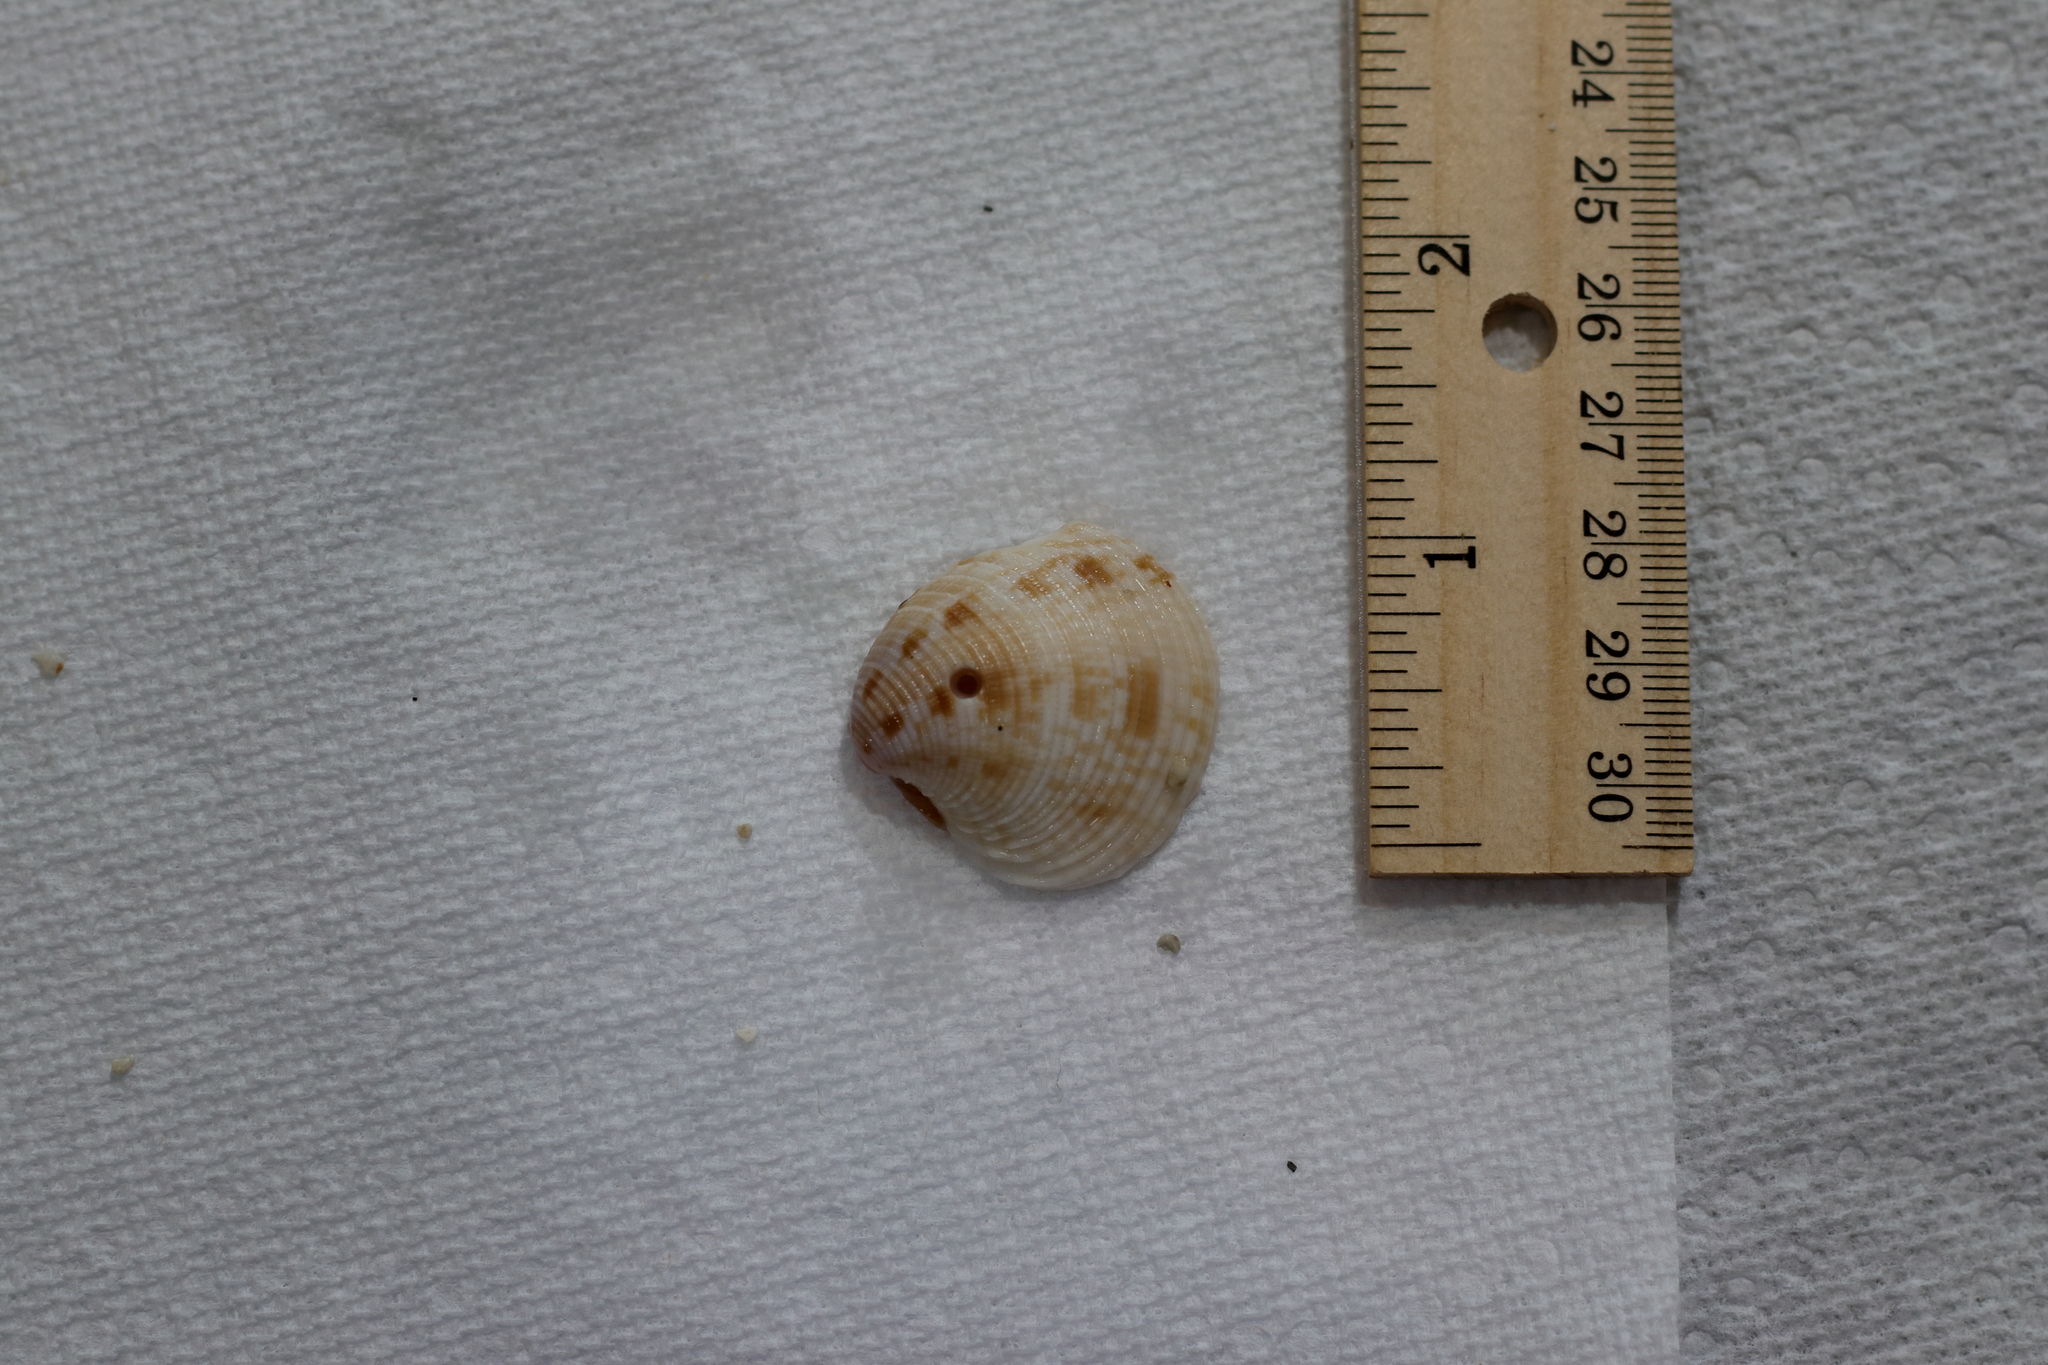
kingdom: Animalia
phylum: Mollusca
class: Bivalvia
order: Venerida
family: Veneridae
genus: Chionopsis
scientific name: Chionopsis intapurpurea
